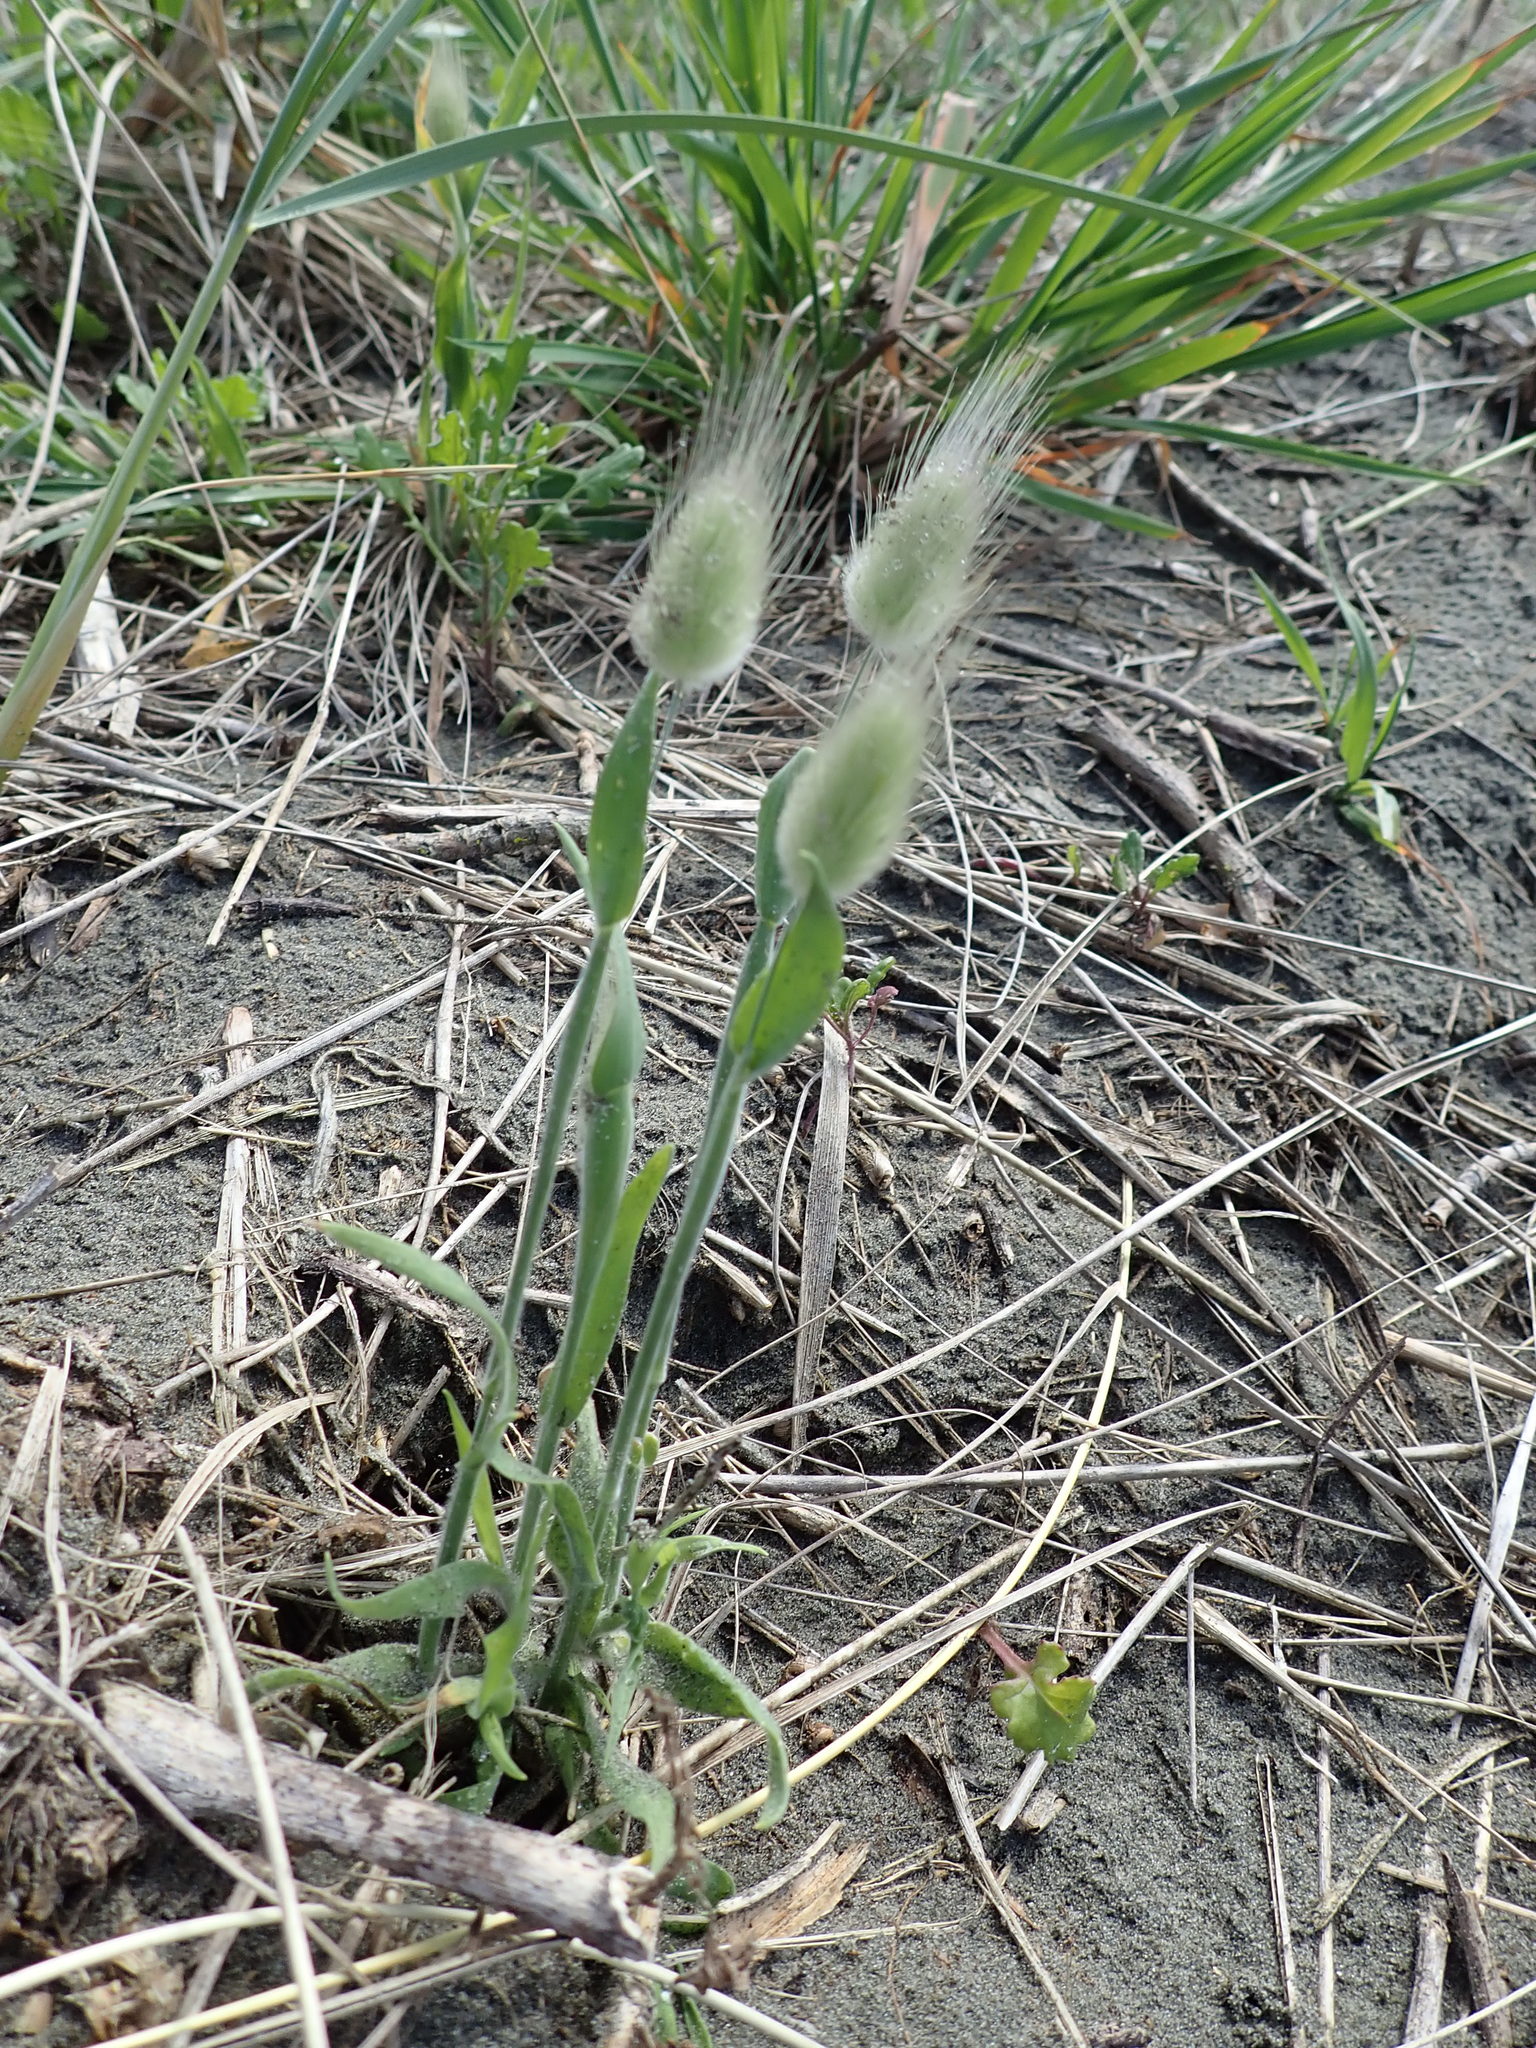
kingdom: Plantae
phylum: Tracheophyta
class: Liliopsida
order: Poales
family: Poaceae
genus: Lagurus
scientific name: Lagurus ovatus
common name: Hare's-tail
